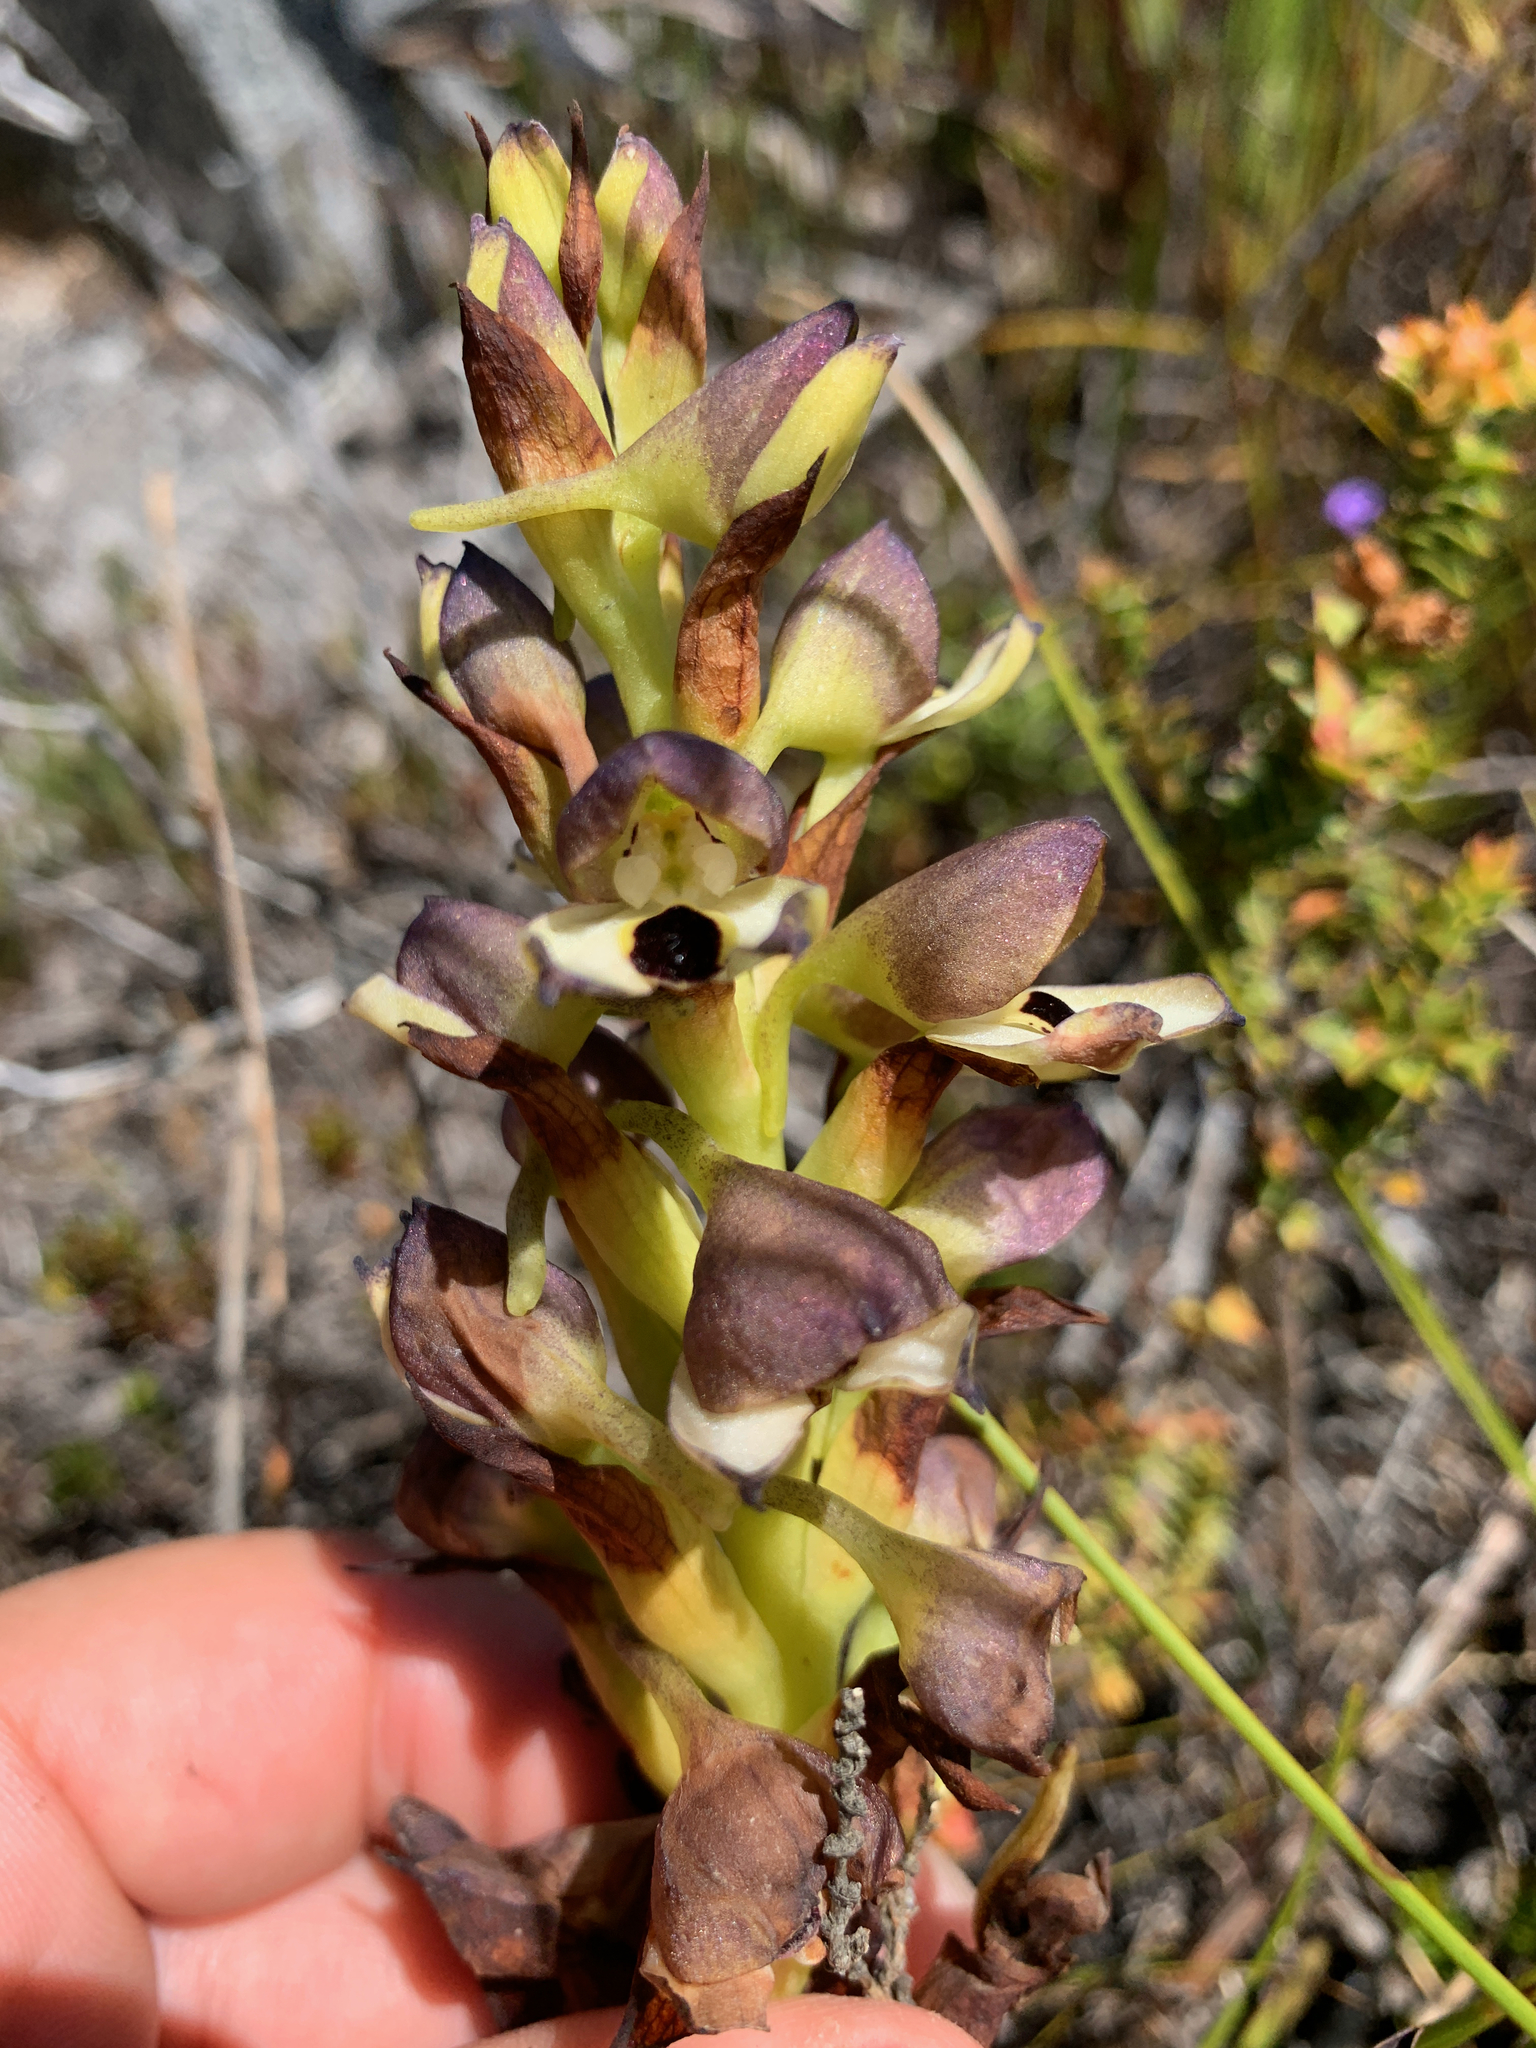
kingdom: Plantae
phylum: Tracheophyta
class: Liliopsida
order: Asparagales
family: Orchidaceae
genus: Disa
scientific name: Disa cornuta
